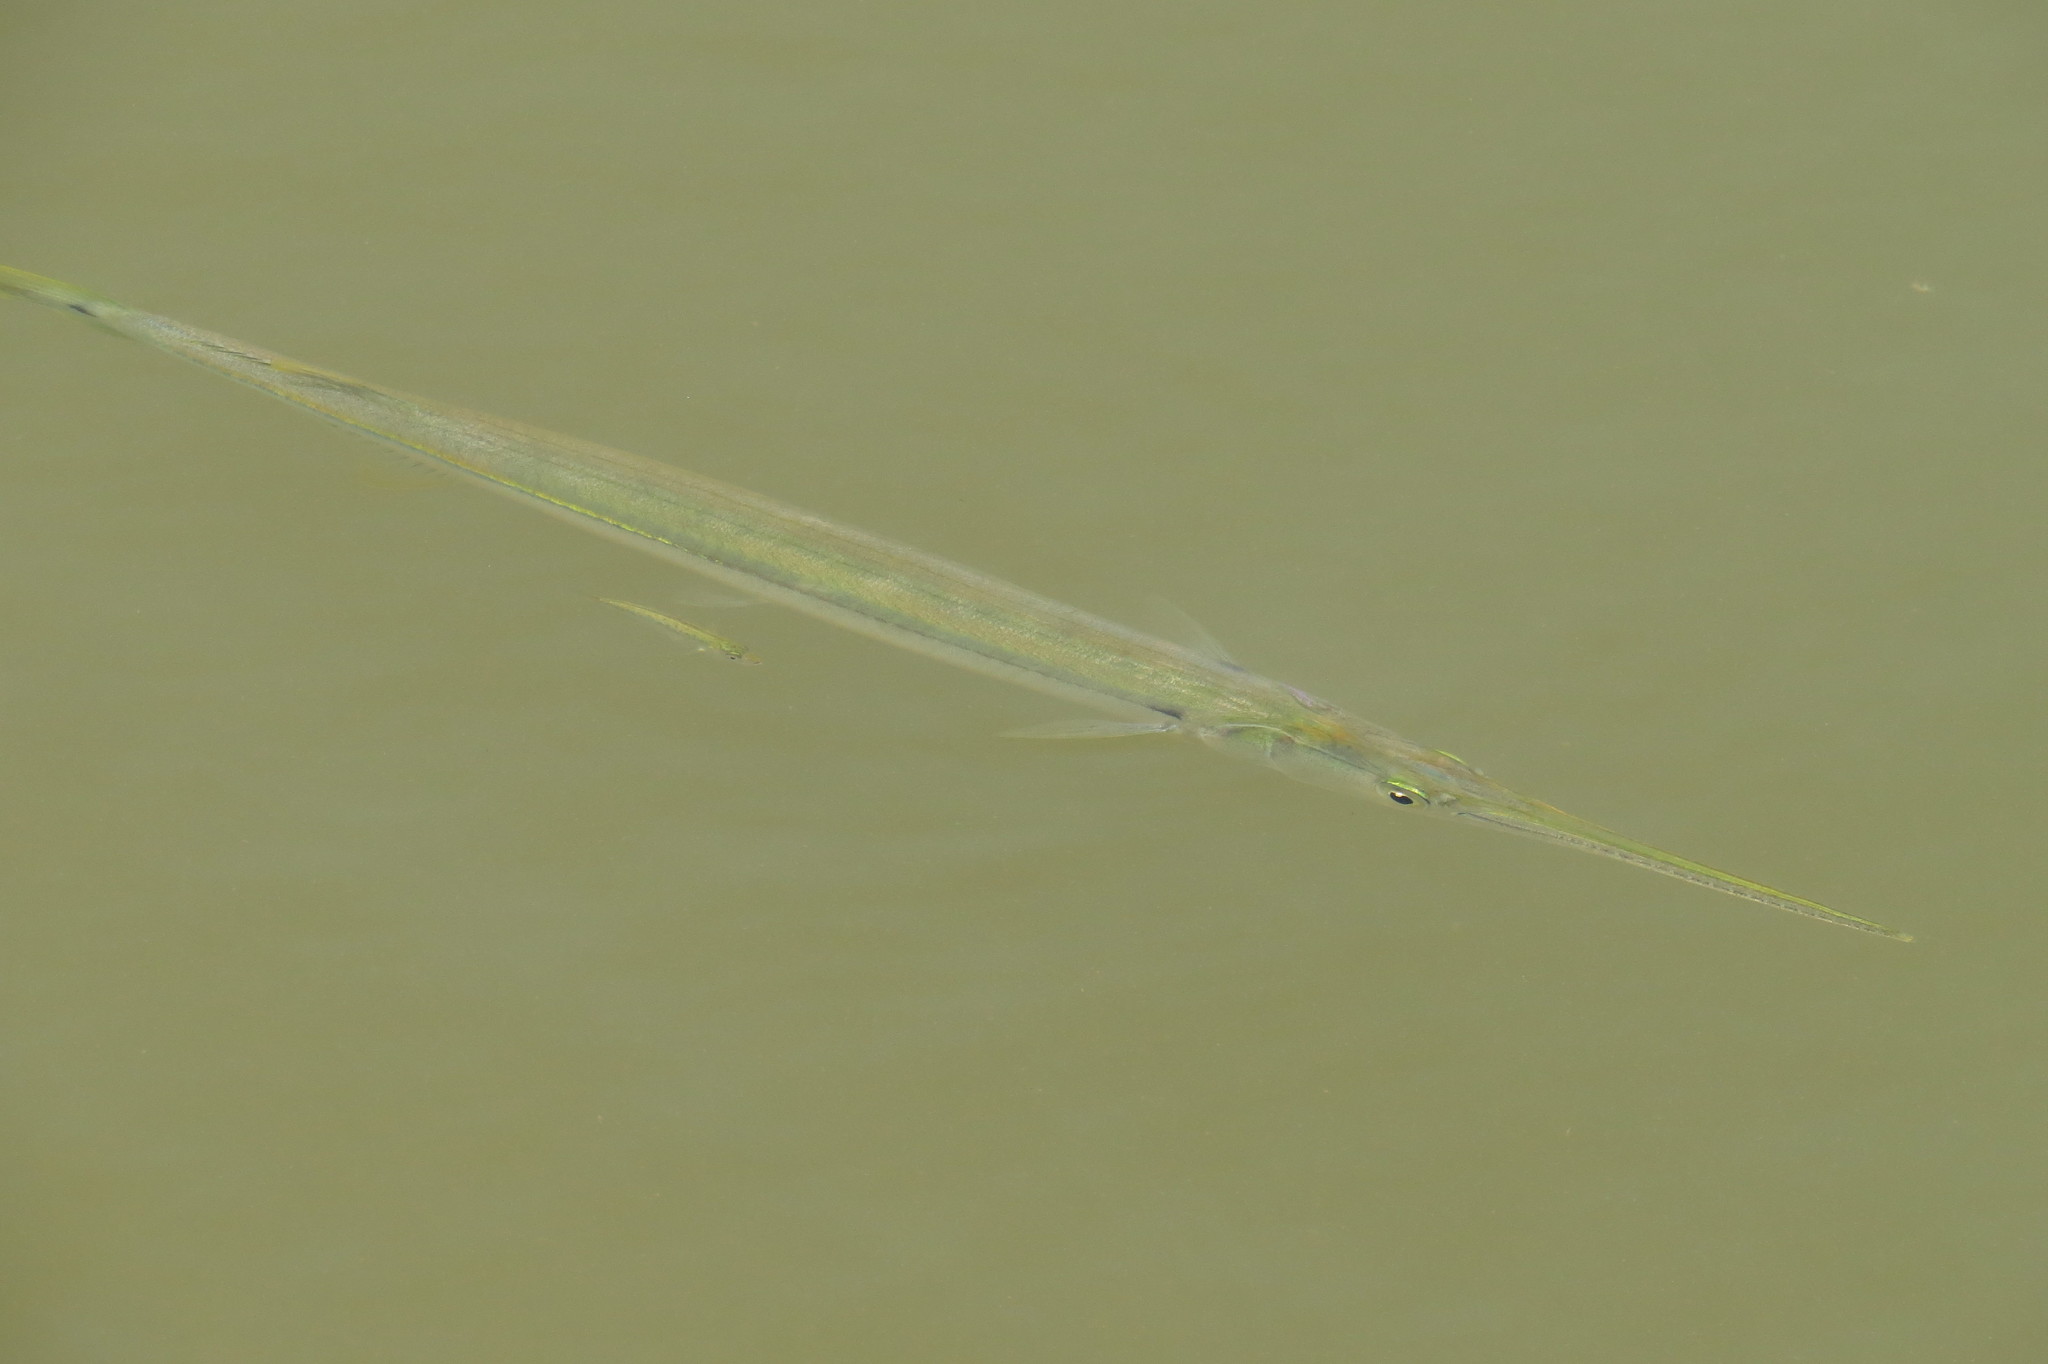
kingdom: Animalia
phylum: Chordata
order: Beloniformes
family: Belonidae
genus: Strongylura
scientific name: Strongylura strongylura
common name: Spottail needlefish
